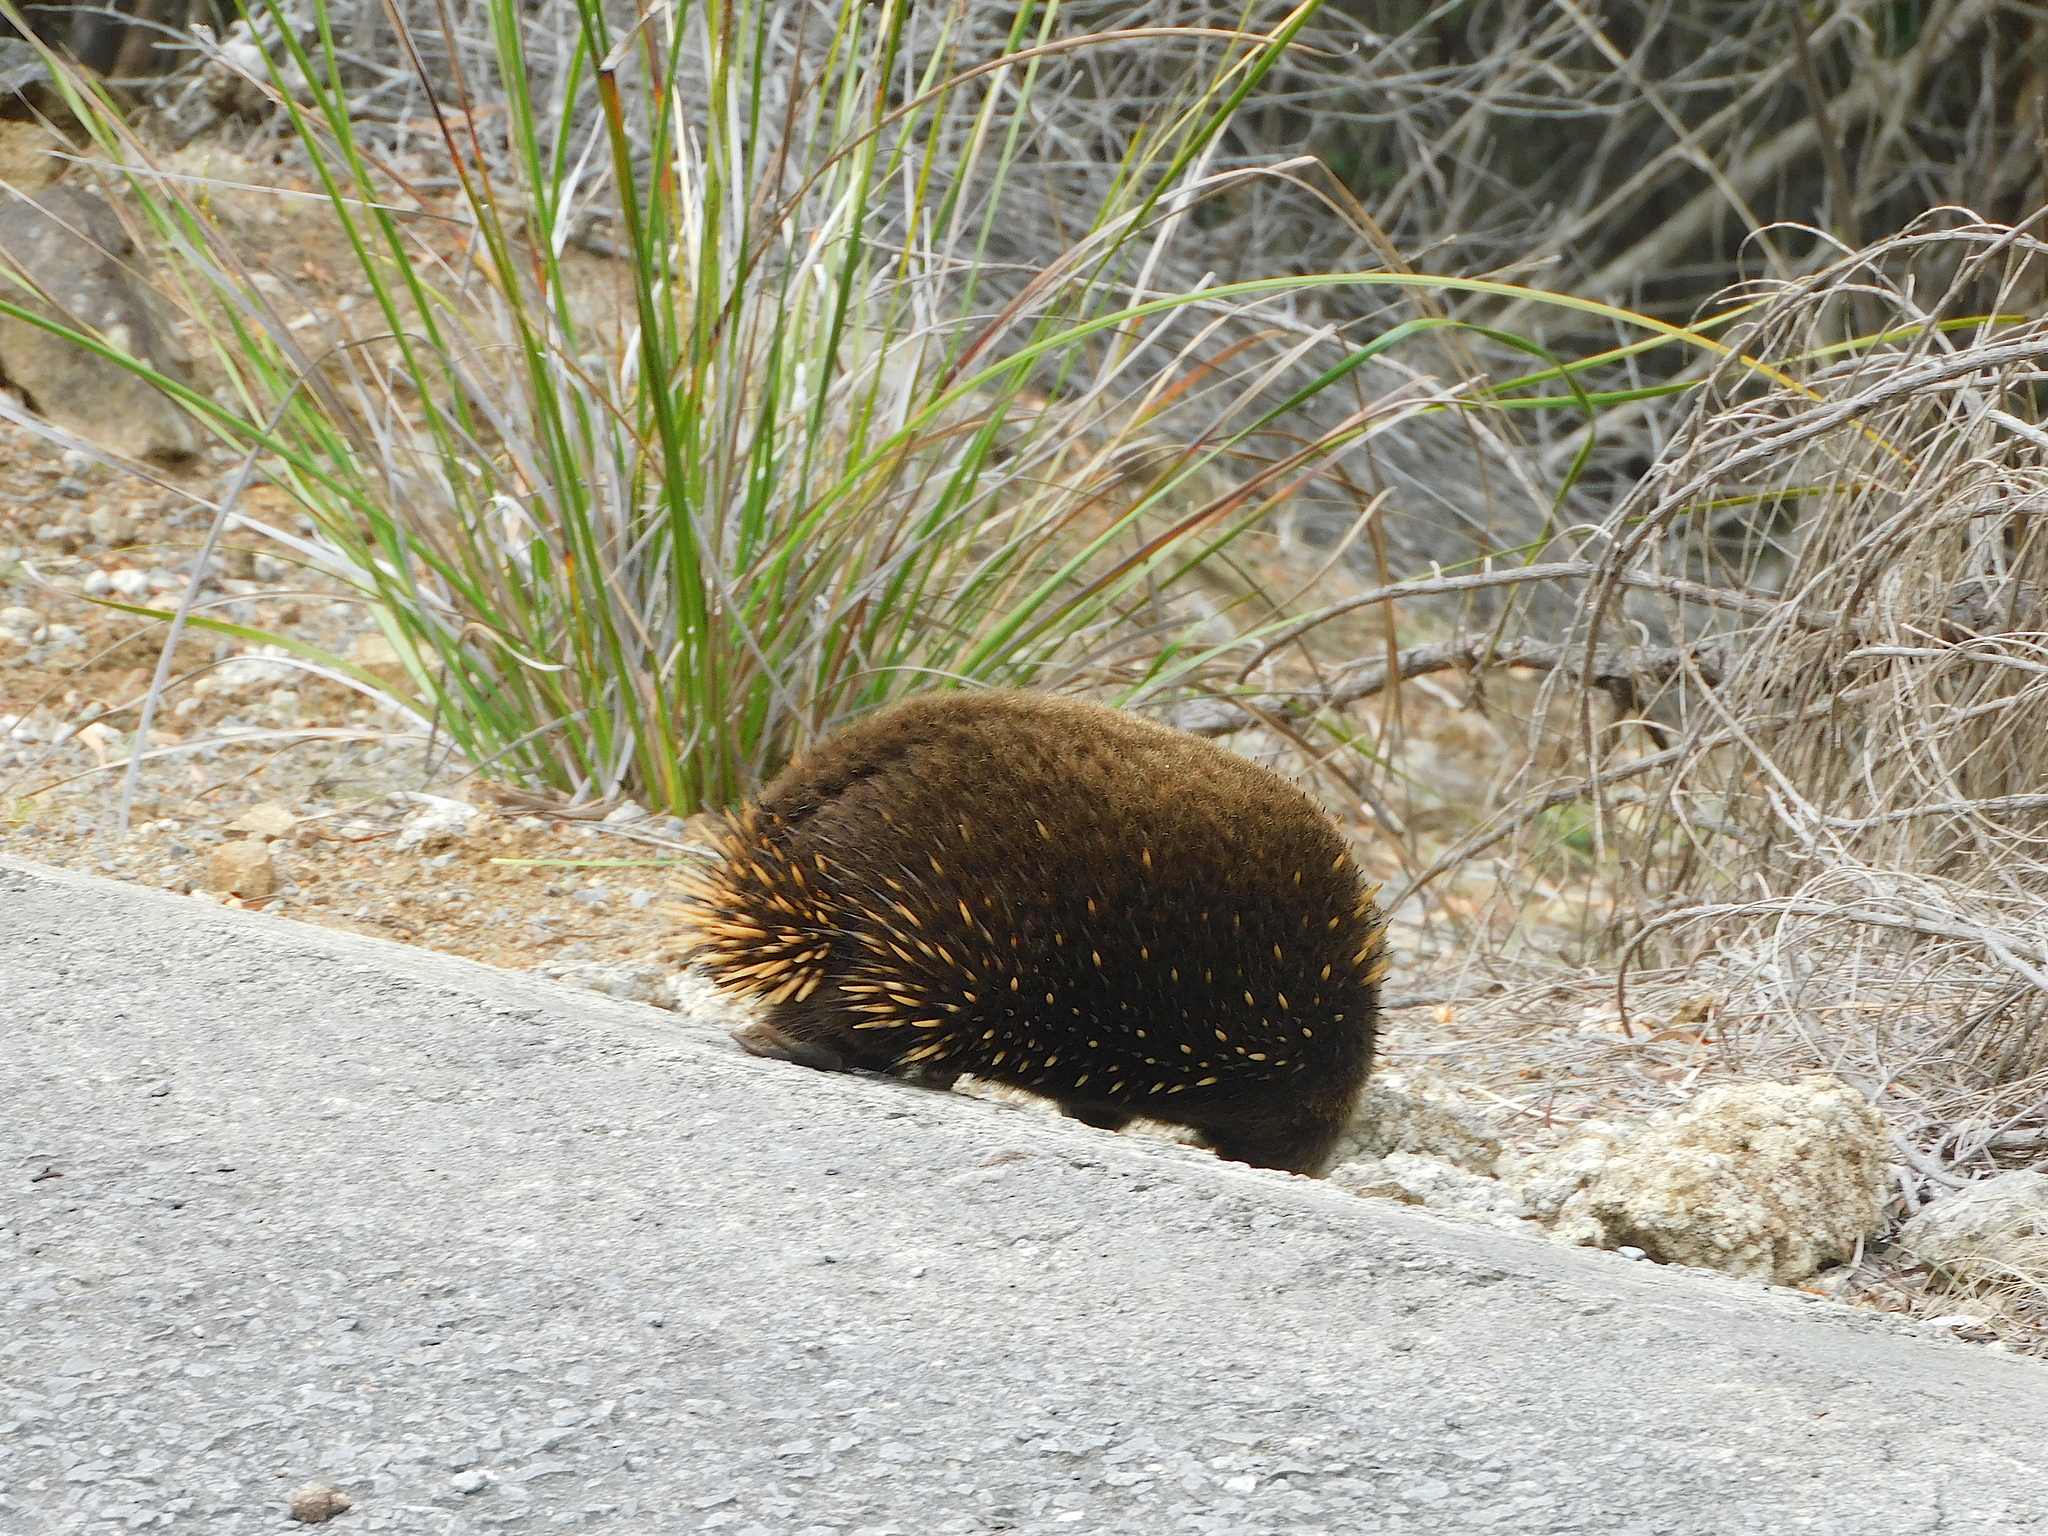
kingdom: Animalia
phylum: Chordata
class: Mammalia
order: Monotremata
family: Tachyglossidae
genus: Tachyglossus
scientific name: Tachyglossus aculeatus
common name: Short-beaked echidna
